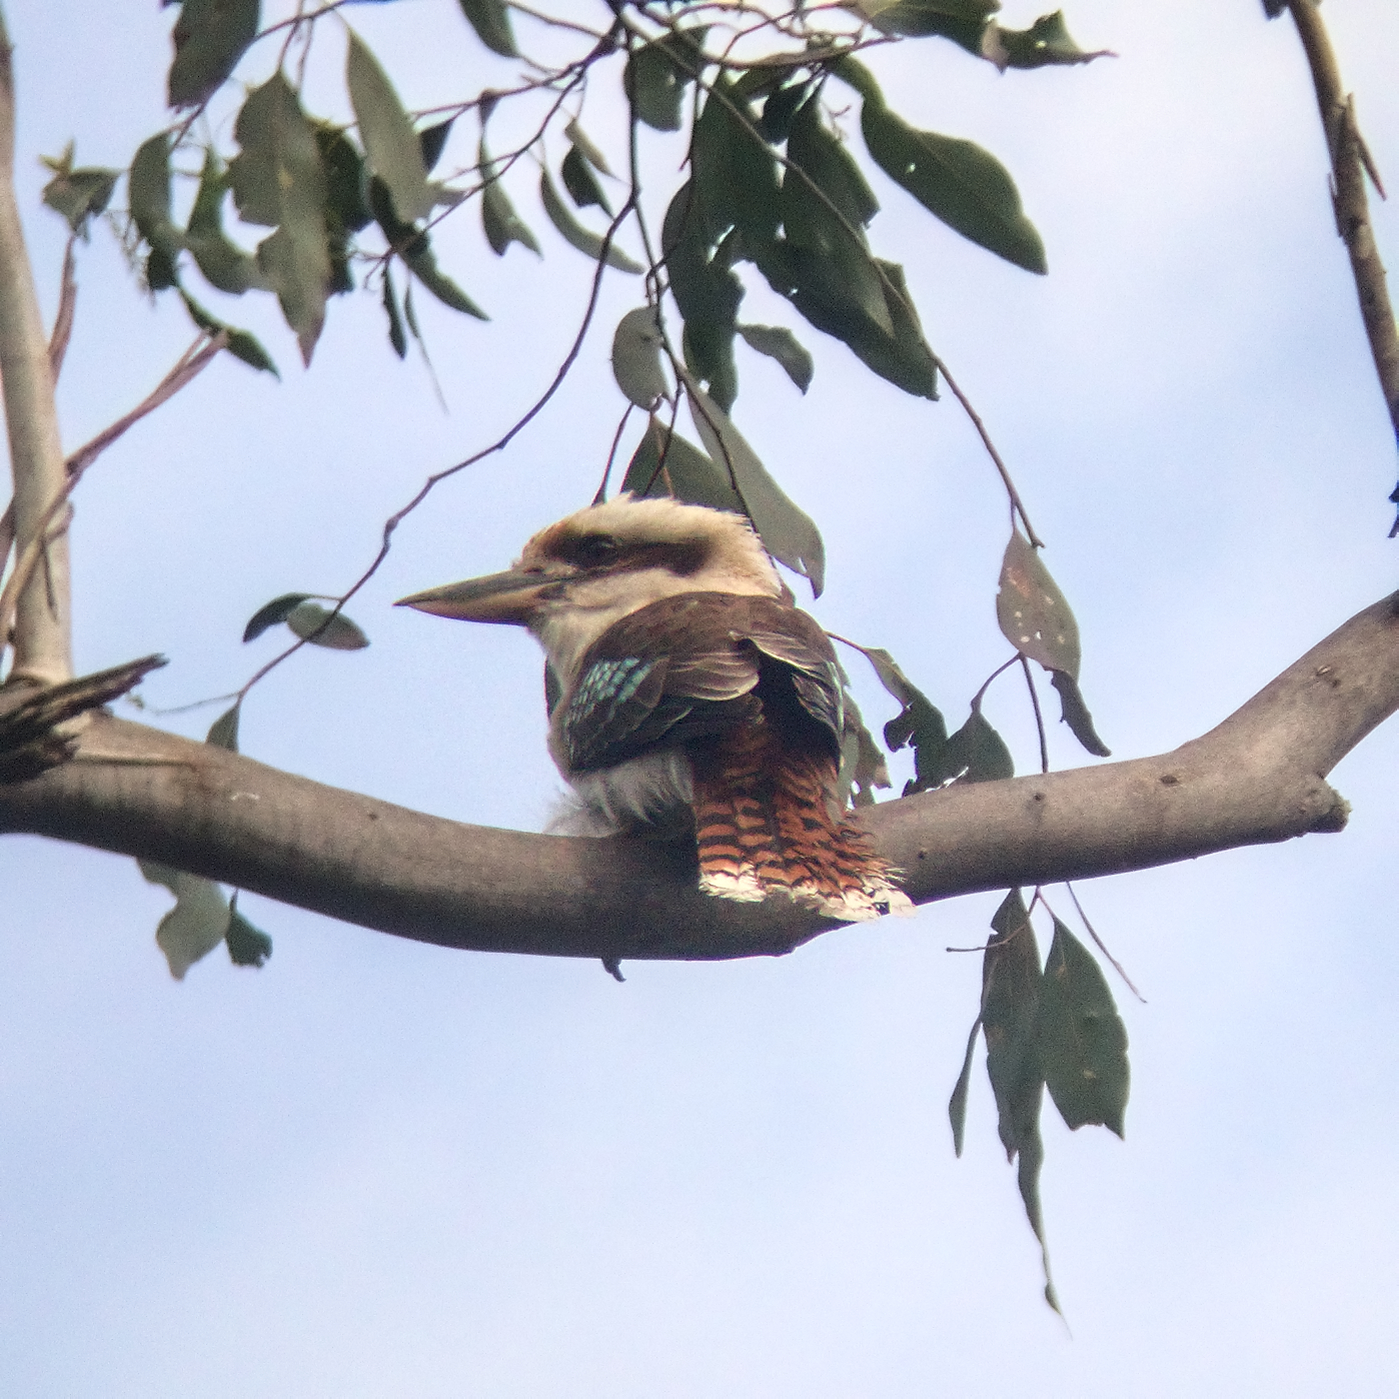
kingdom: Animalia
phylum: Chordata
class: Aves
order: Coraciiformes
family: Alcedinidae
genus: Dacelo
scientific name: Dacelo novaeguineae
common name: Laughing kookaburra
